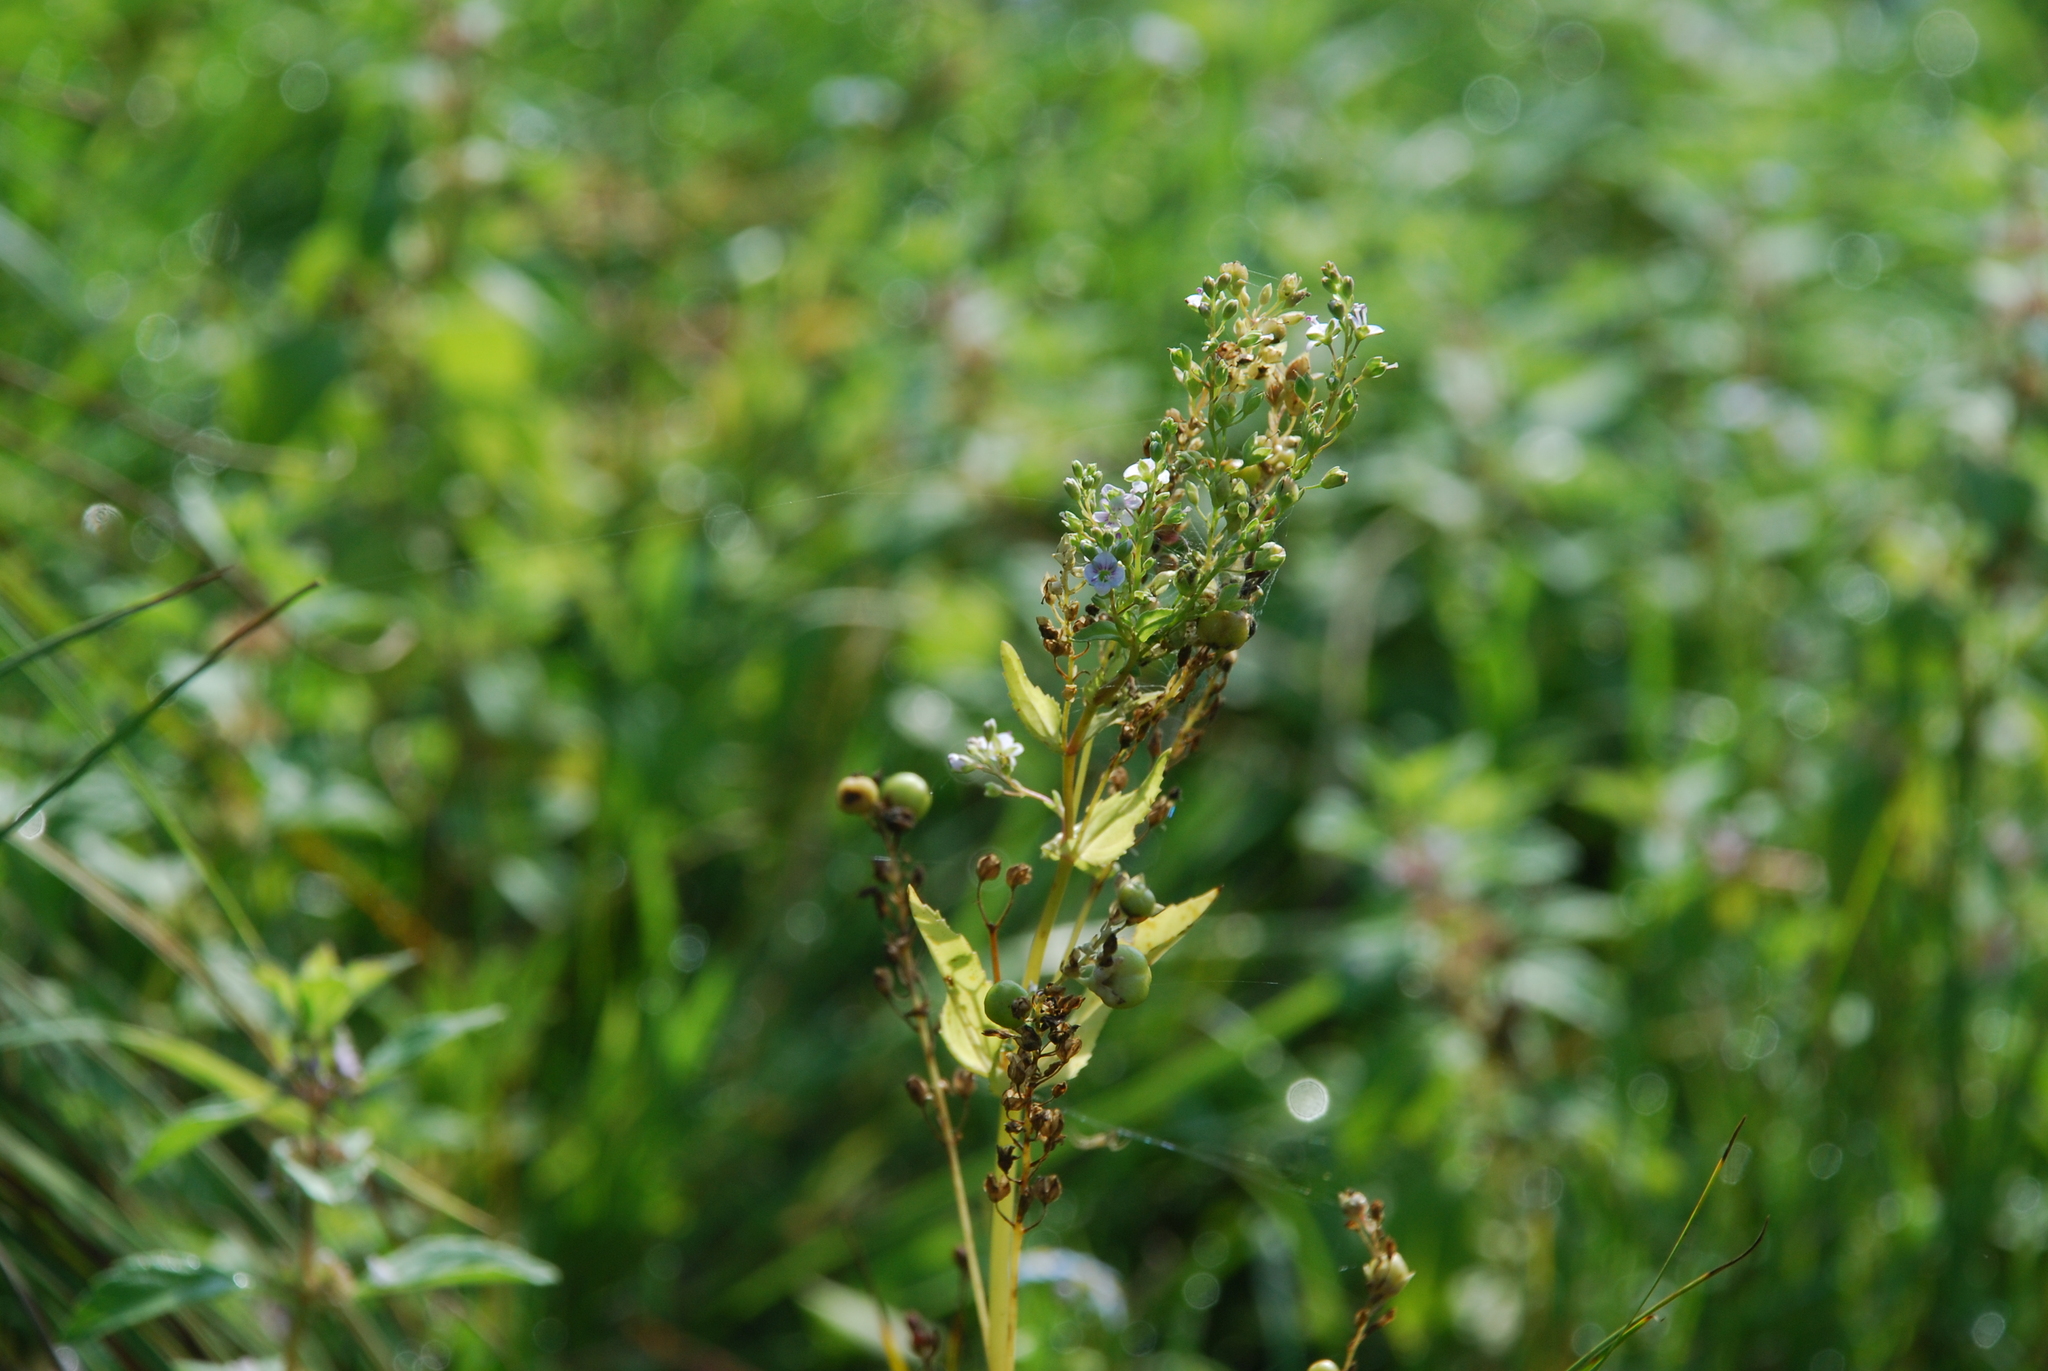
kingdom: Plantae
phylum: Tracheophyta
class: Magnoliopsida
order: Lamiales
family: Plantaginaceae
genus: Veronica
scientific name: Veronica anagallis-aquatica
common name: Water speedwell
